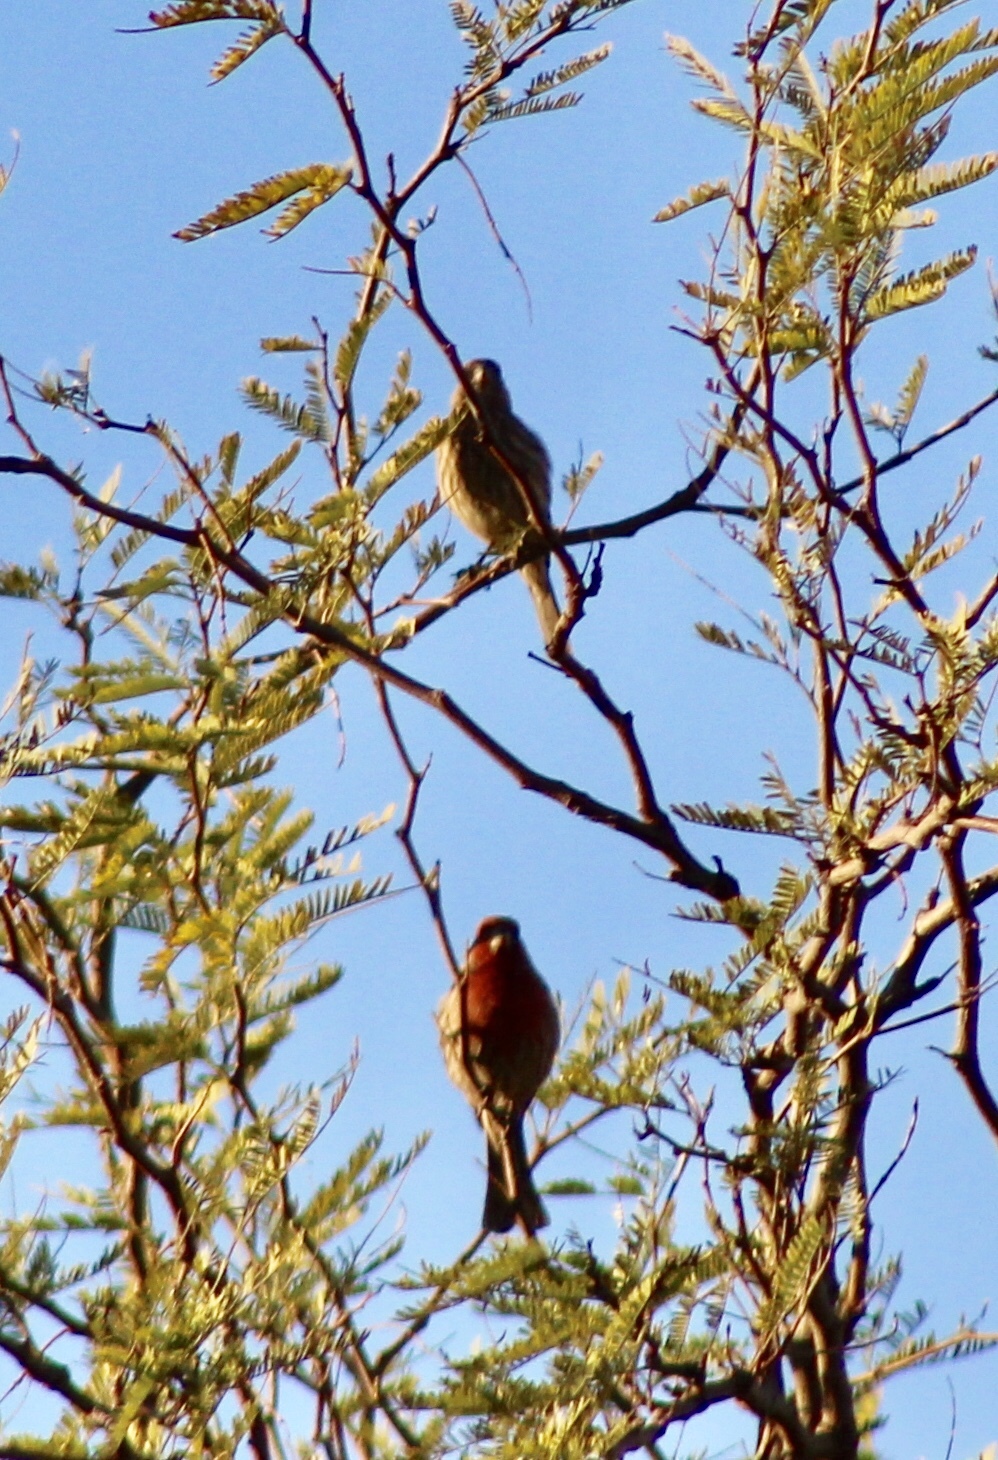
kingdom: Animalia
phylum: Chordata
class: Aves
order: Passeriformes
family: Fringillidae
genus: Haemorhous
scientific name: Haemorhous mexicanus
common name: House finch
